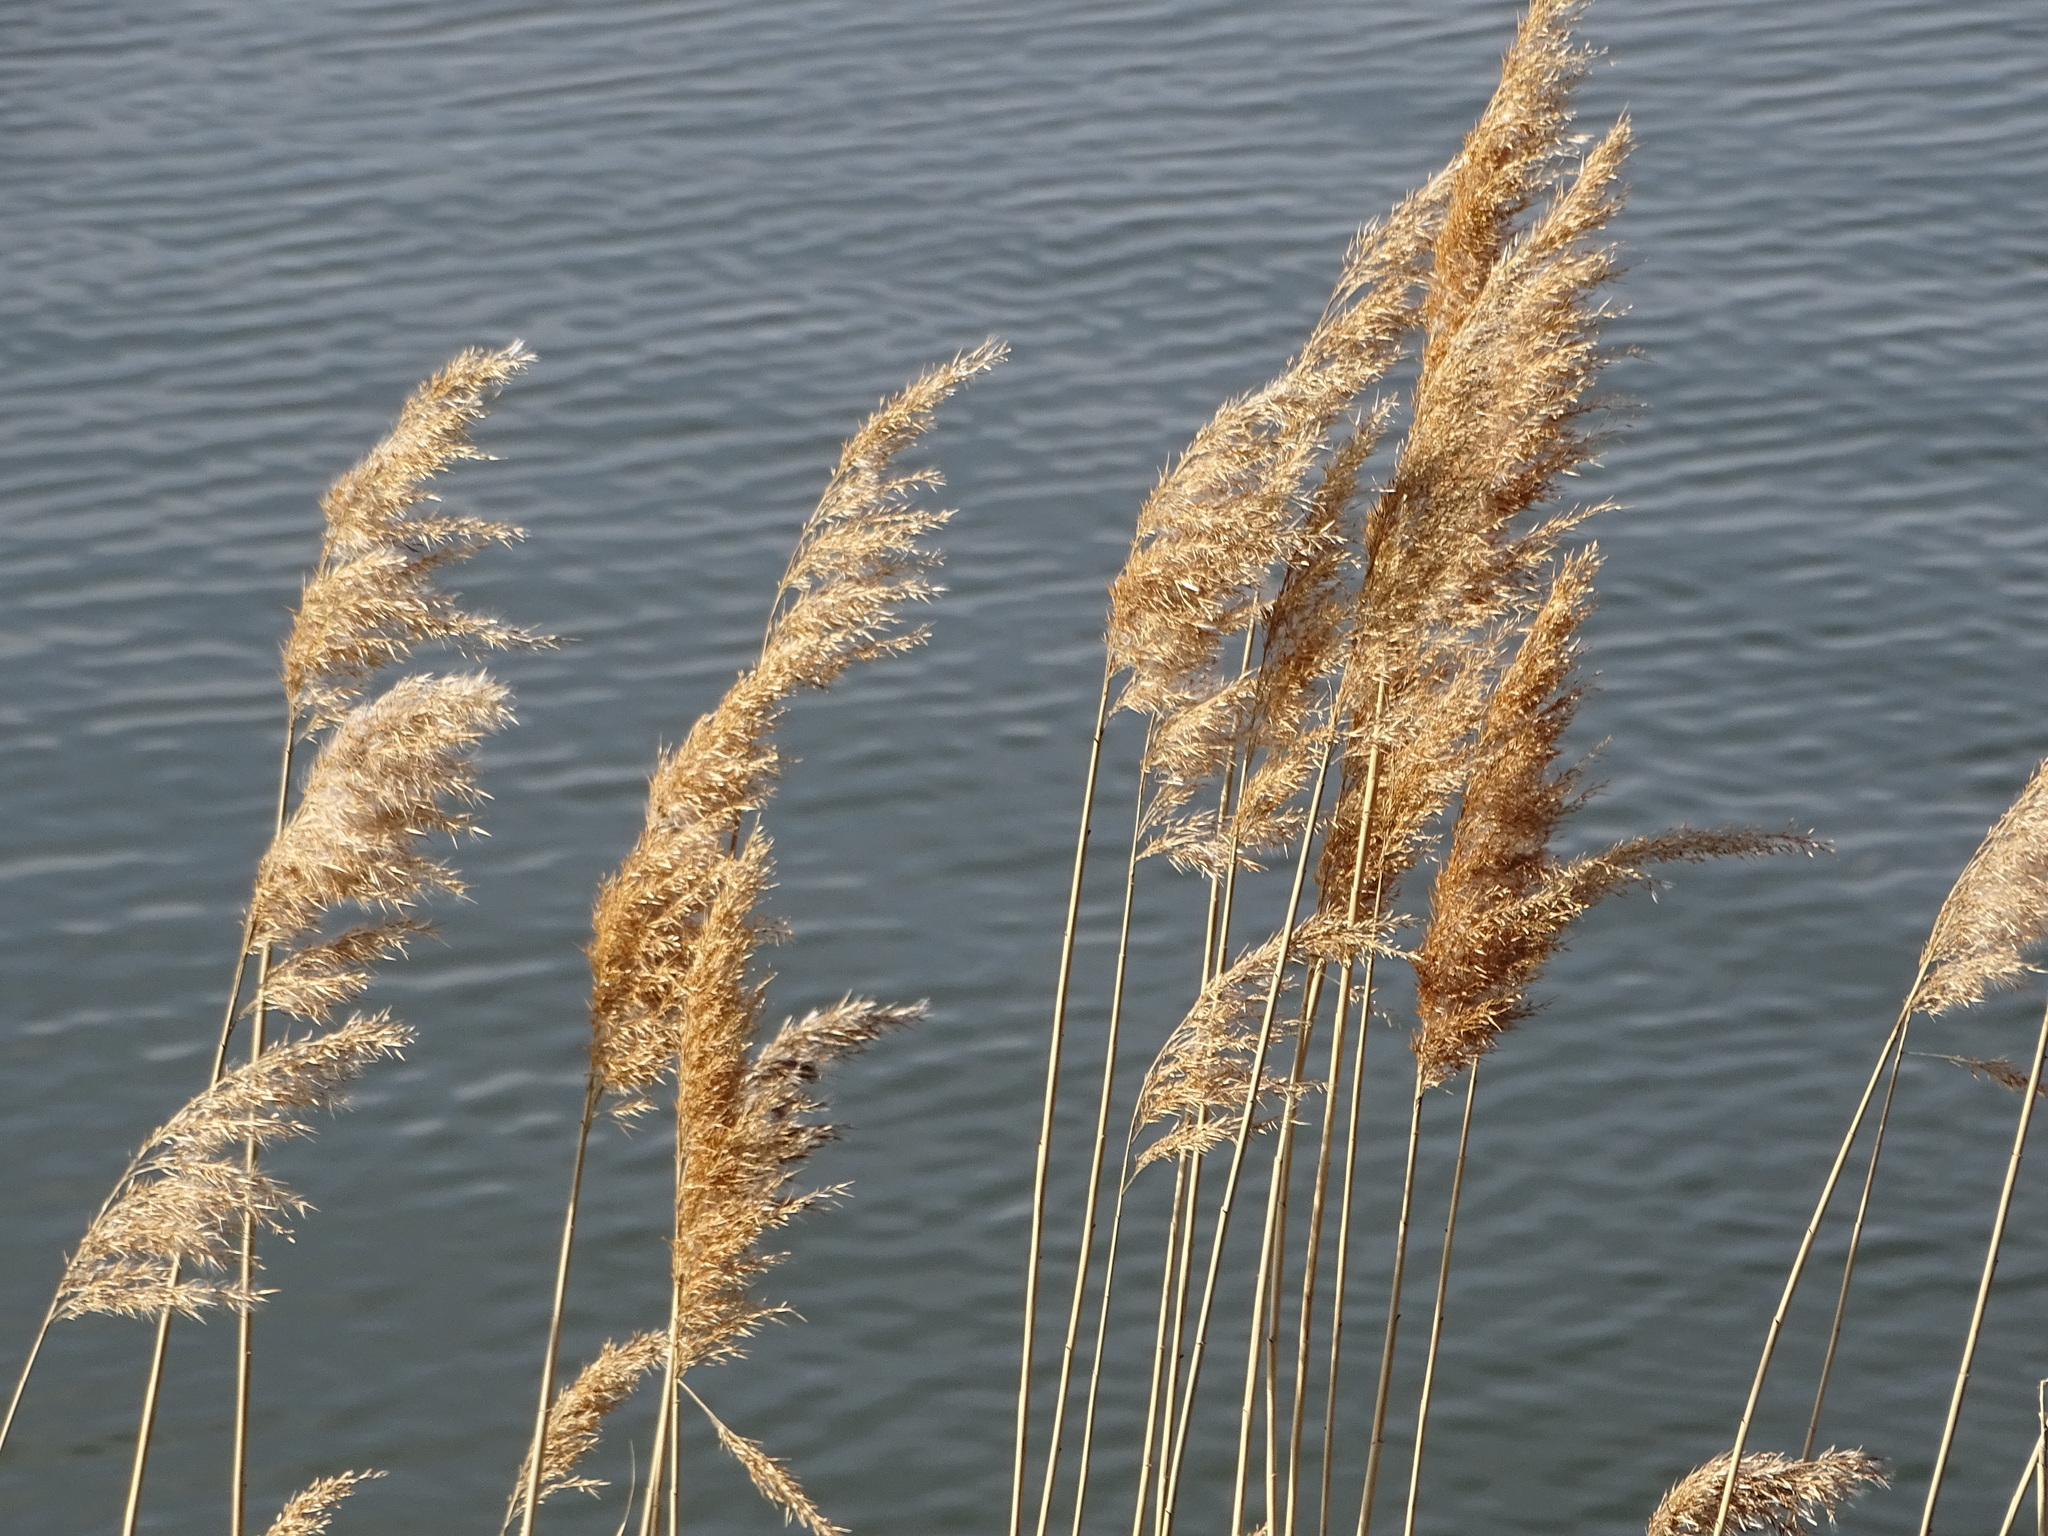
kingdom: Plantae
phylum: Tracheophyta
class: Liliopsida
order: Poales
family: Poaceae
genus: Phragmites
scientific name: Phragmites australis
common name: Common reed
